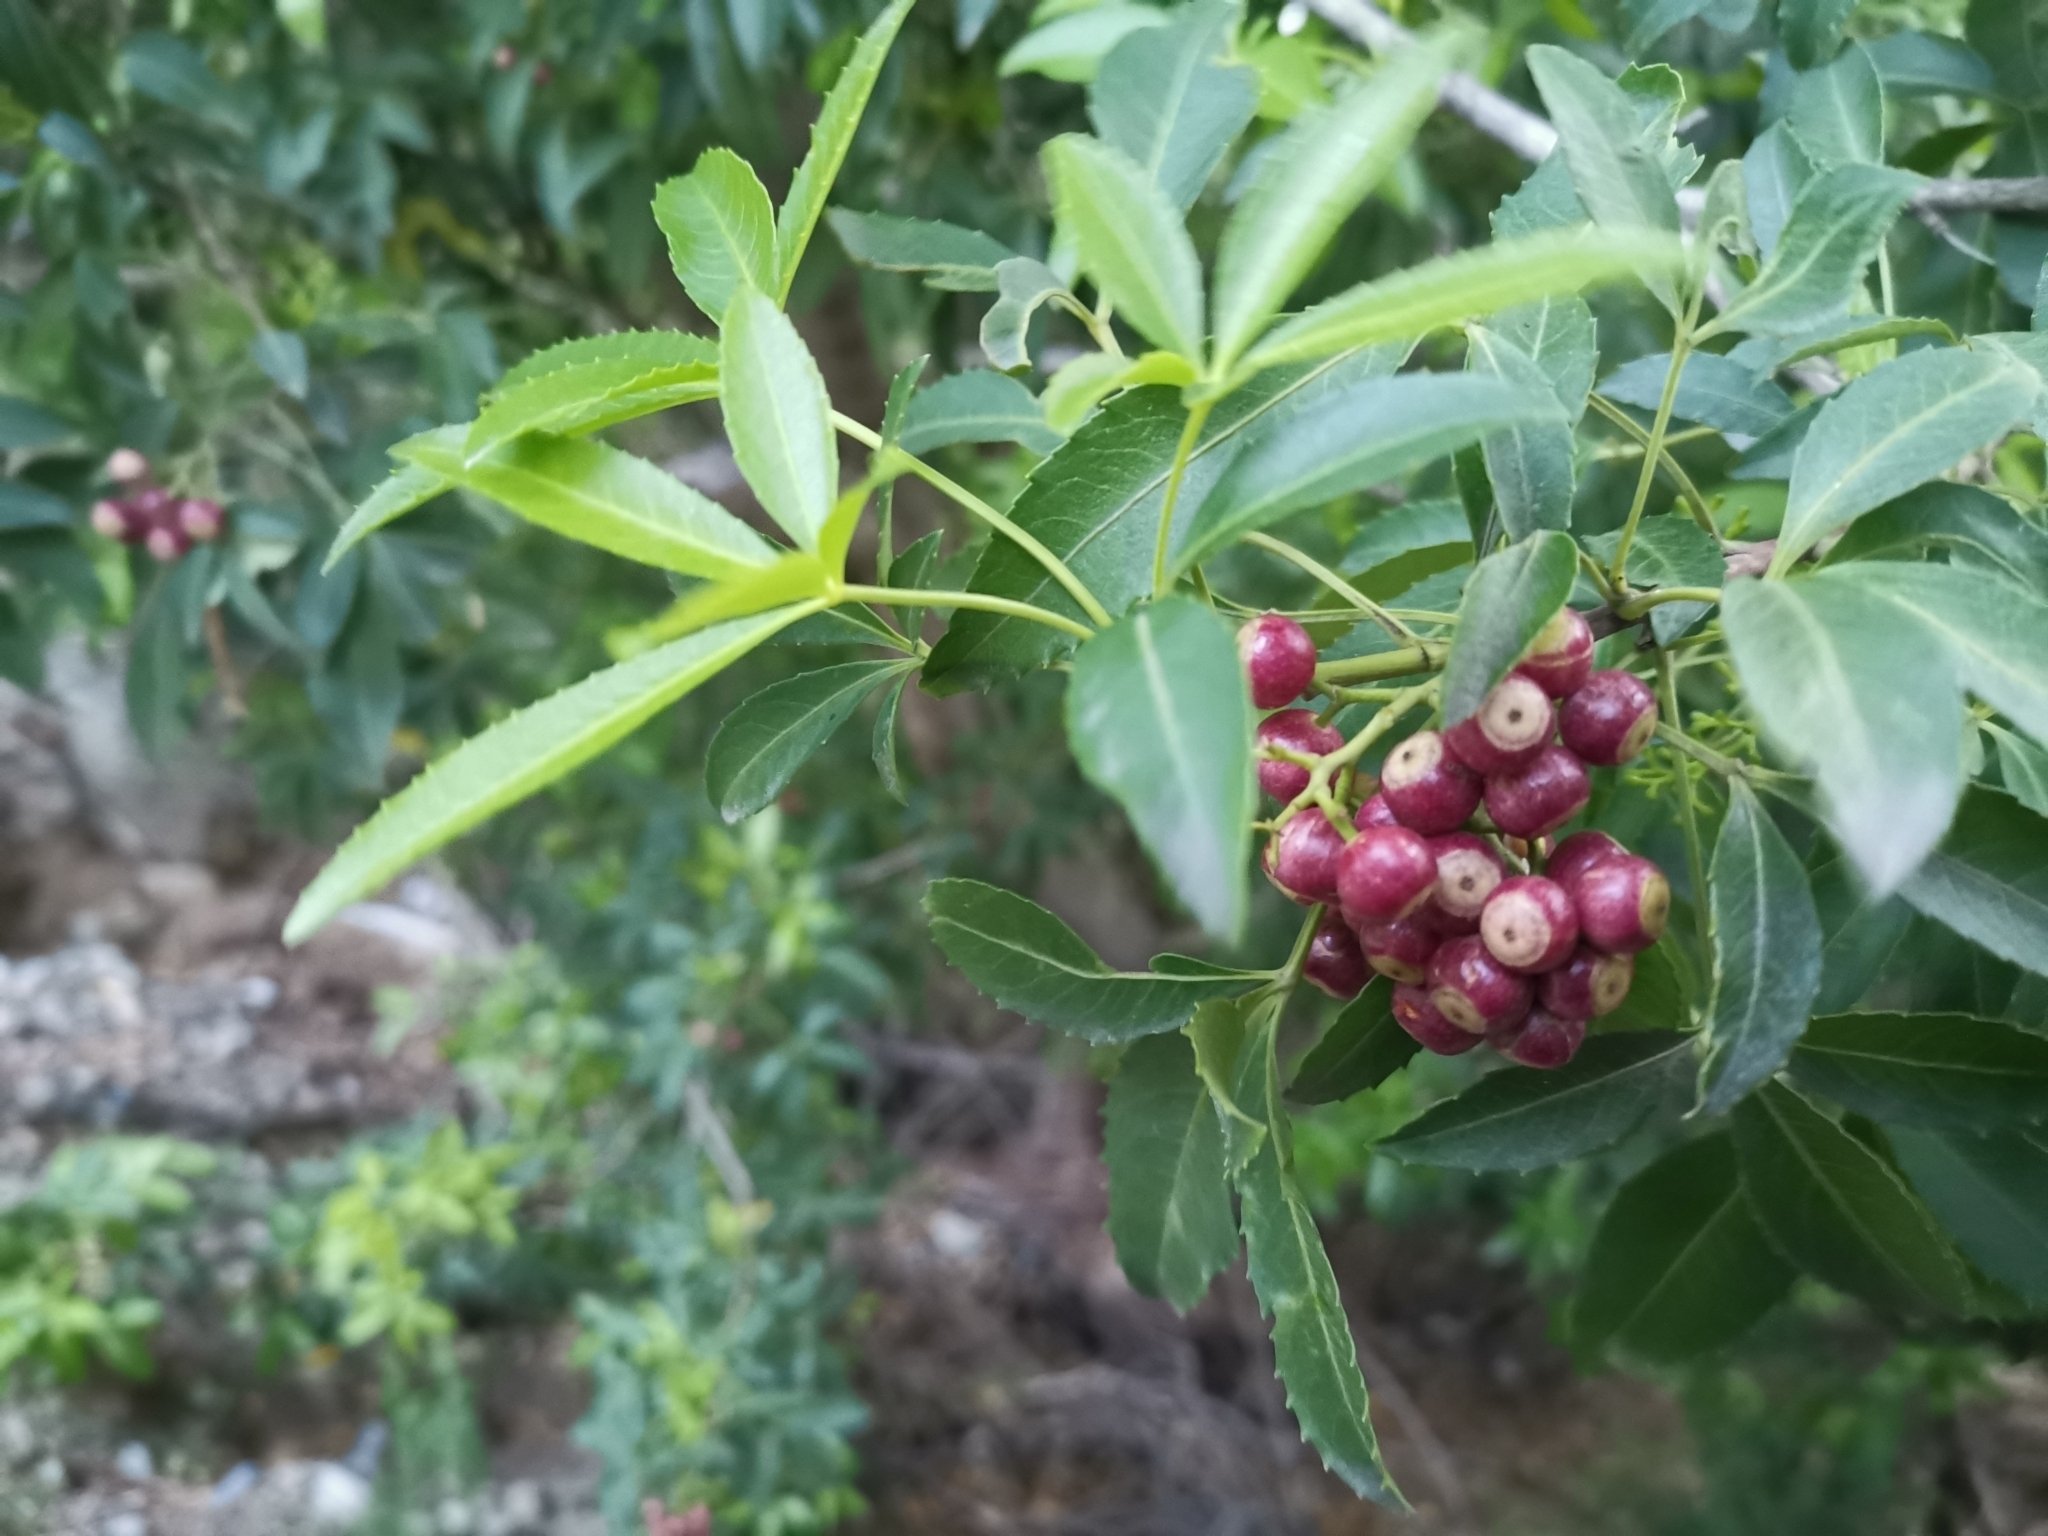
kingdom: Plantae
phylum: Tracheophyta
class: Magnoliopsida
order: Apiales
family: Araliaceae
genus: Raukaua
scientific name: Raukaua laetevirens
